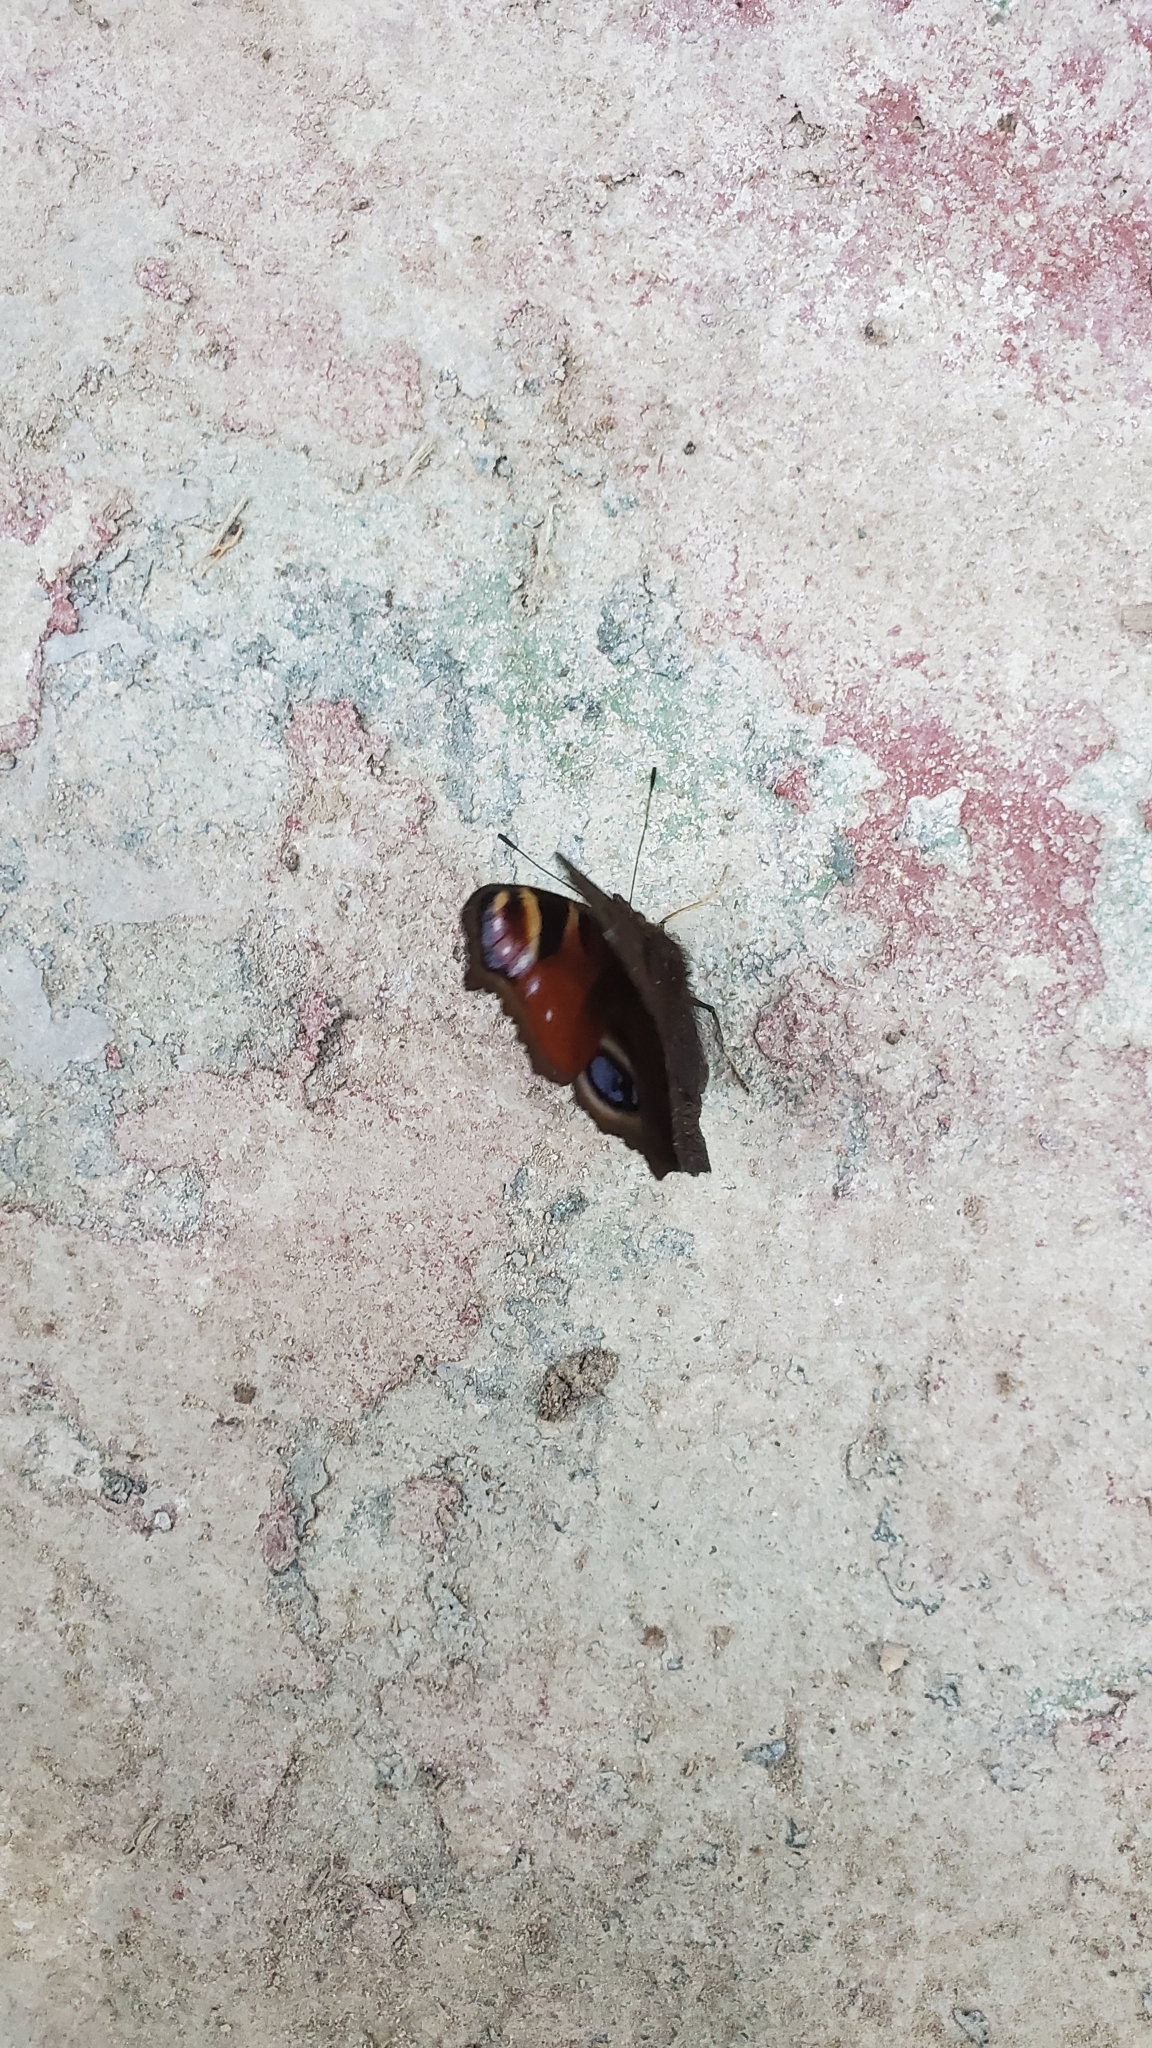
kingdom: Animalia
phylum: Arthropoda
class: Insecta
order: Lepidoptera
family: Nymphalidae
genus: Aglais
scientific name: Aglais io
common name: Peacock
